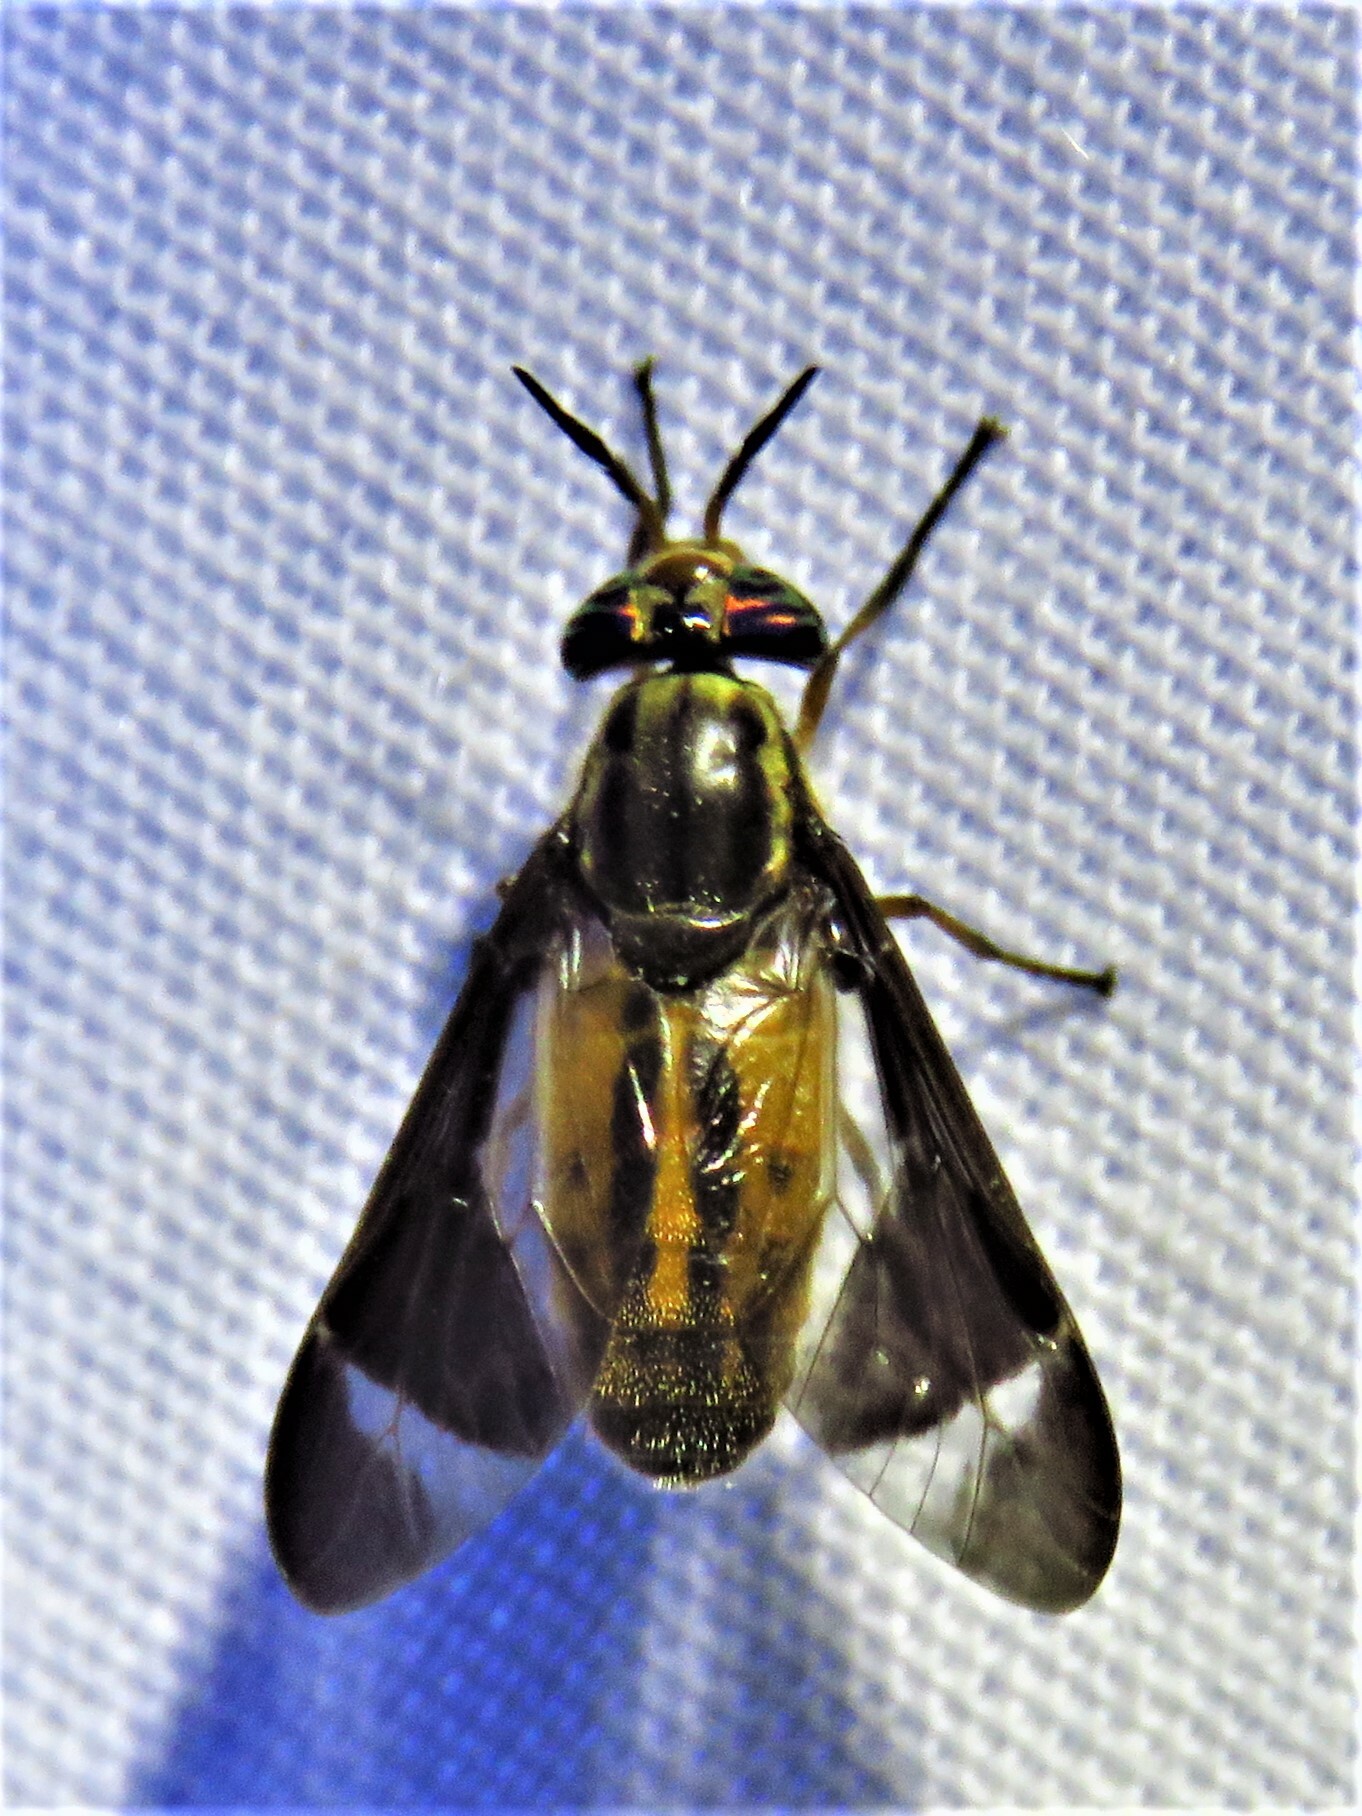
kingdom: Animalia
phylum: Arthropoda
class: Insecta
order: Diptera
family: Tabanidae
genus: Chrysops
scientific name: Chrysops pikei
